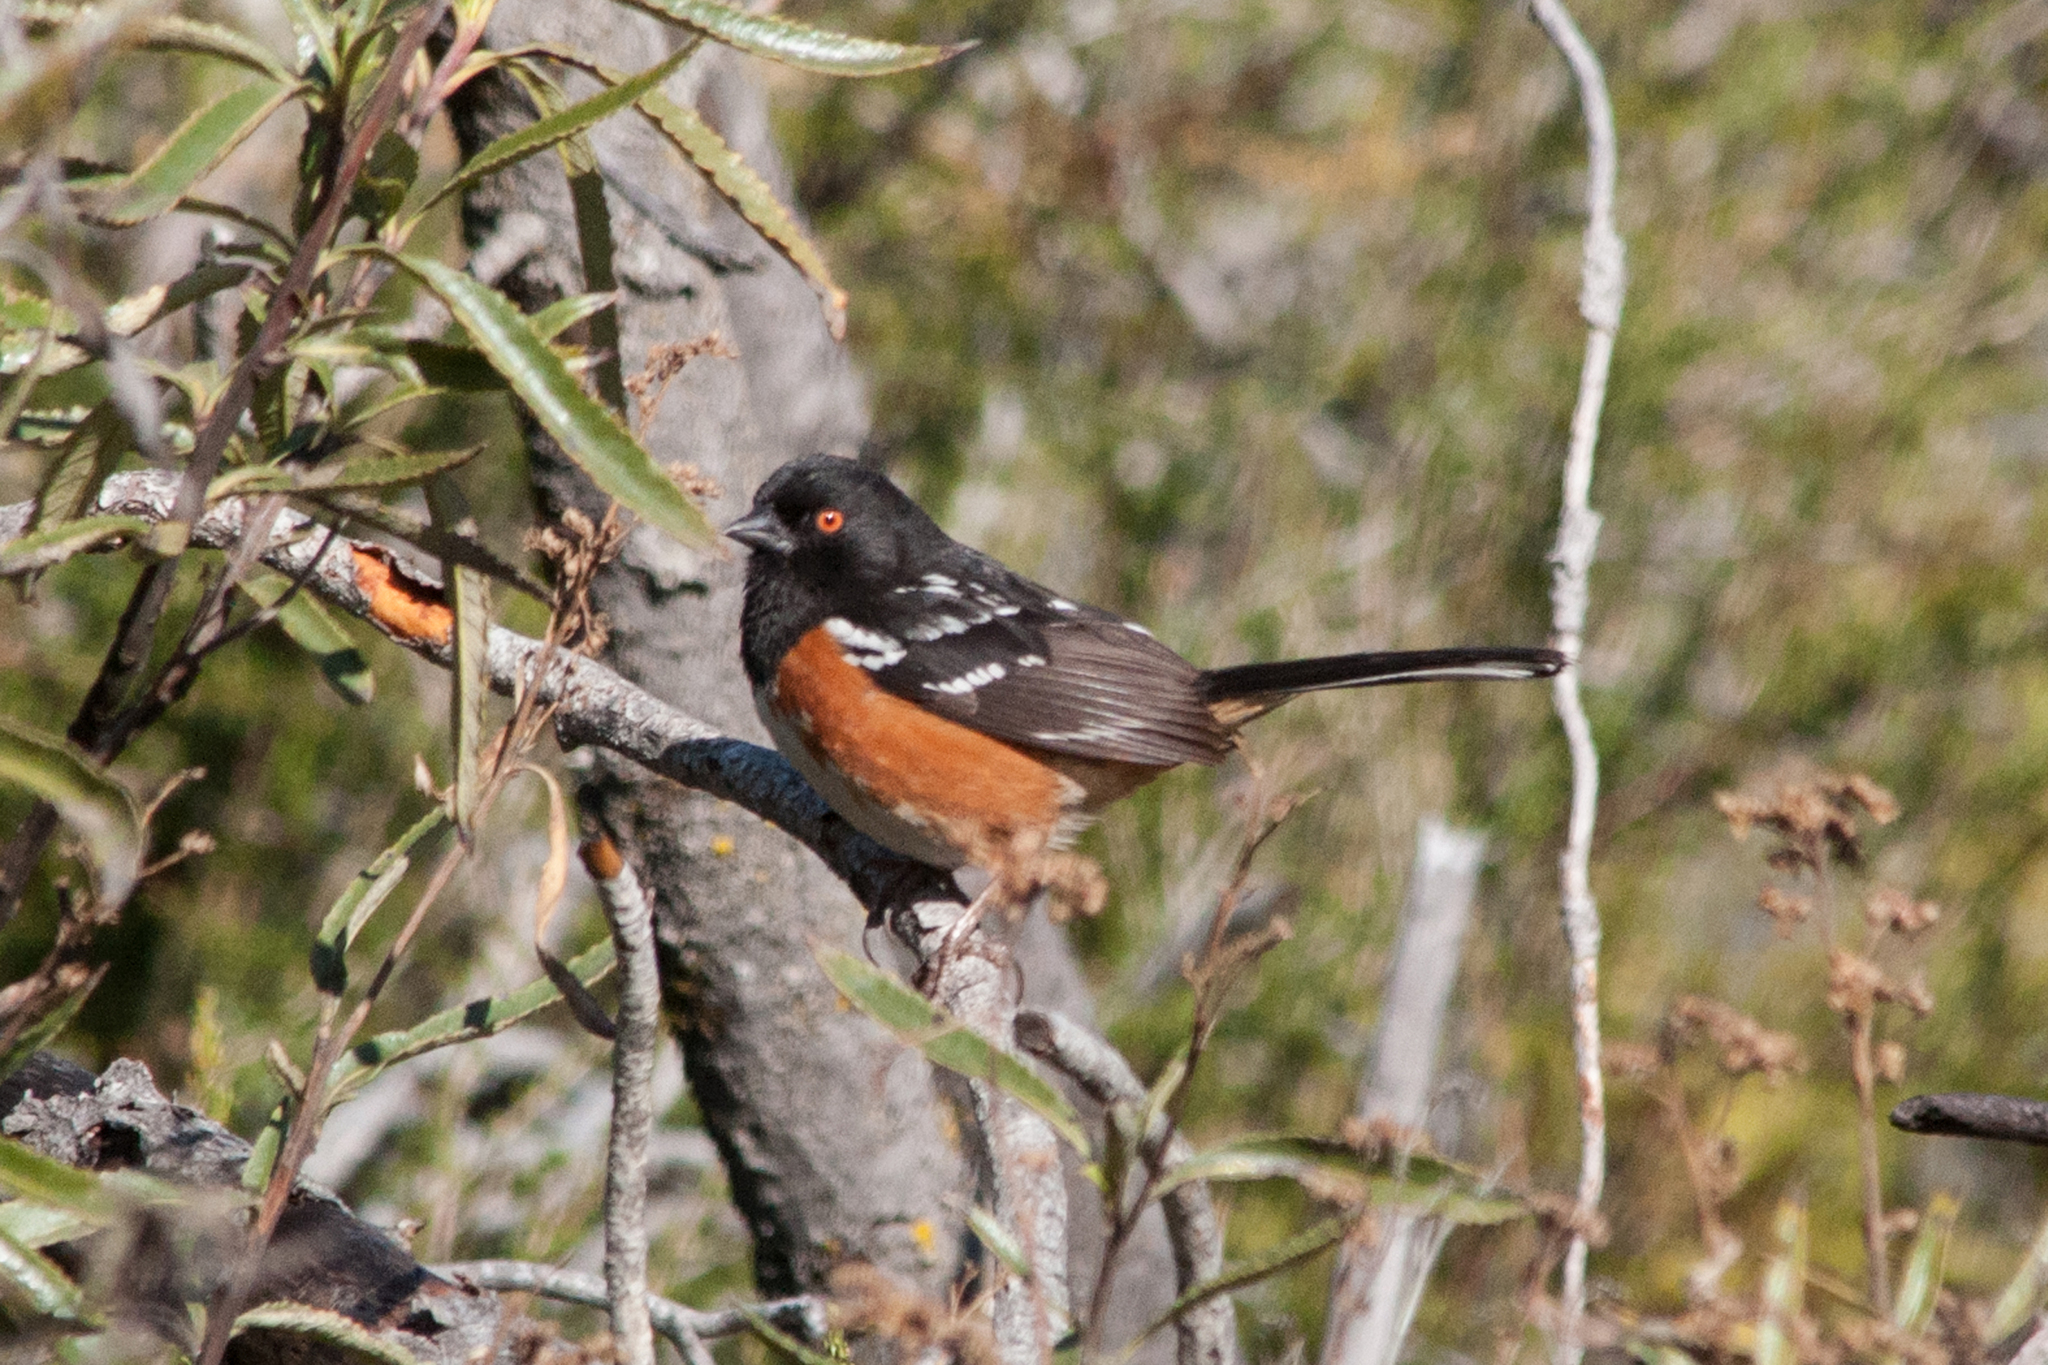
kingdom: Animalia
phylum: Chordata
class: Aves
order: Passeriformes
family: Passerellidae
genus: Pipilo
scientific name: Pipilo maculatus
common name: Spotted towhee
